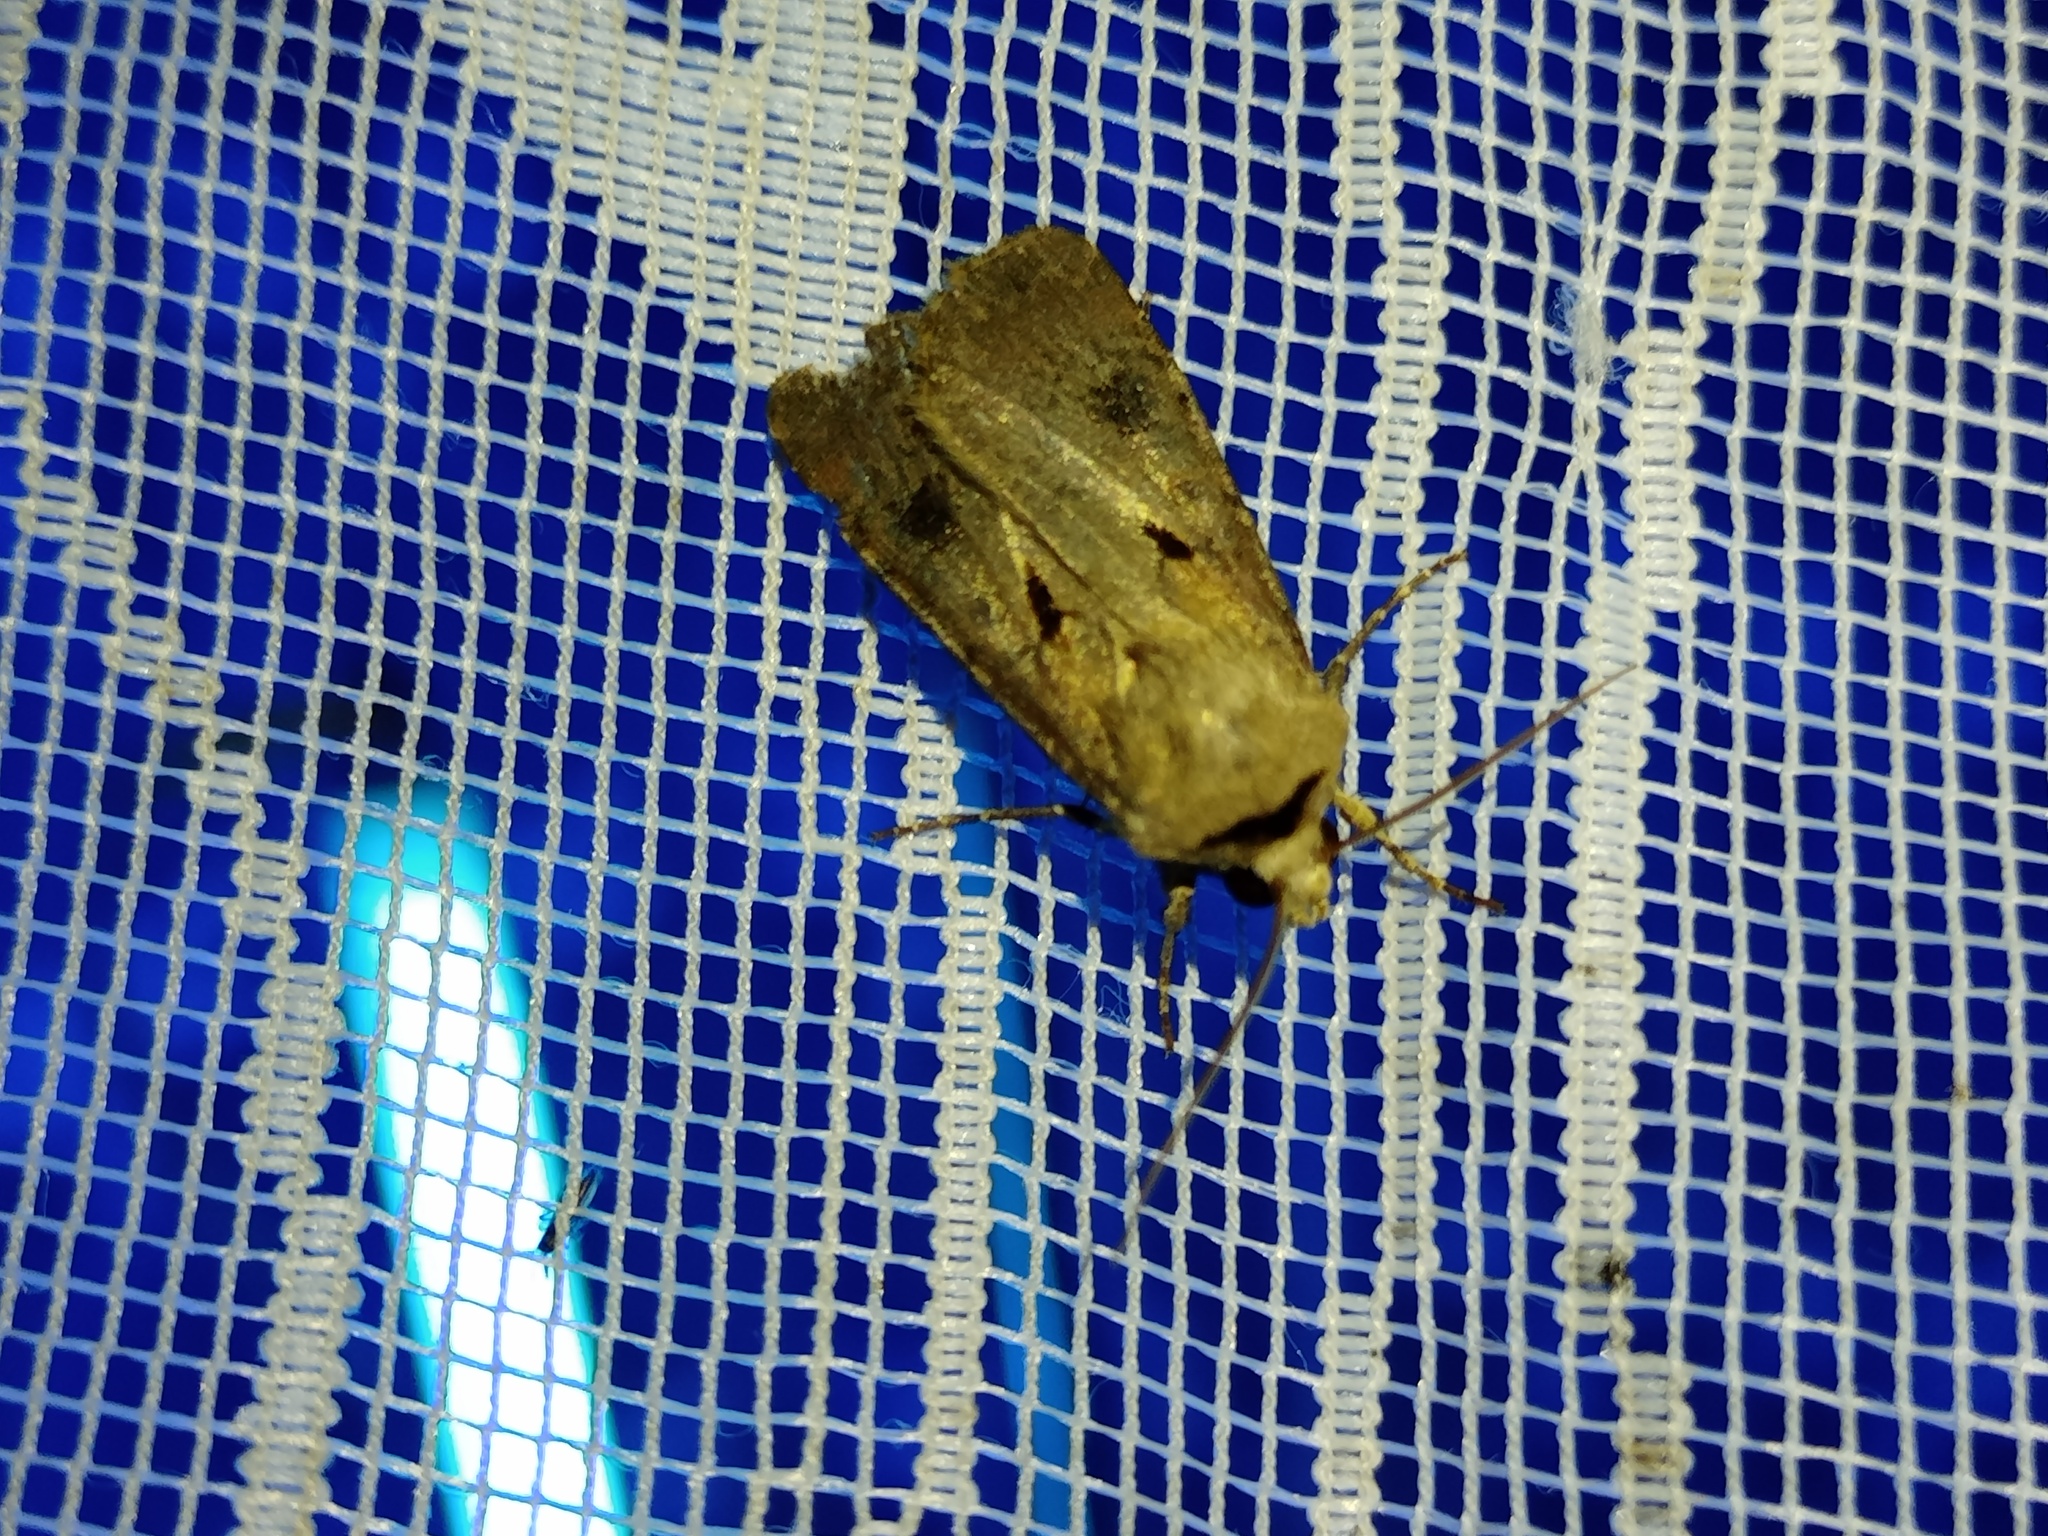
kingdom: Animalia
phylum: Arthropoda
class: Insecta
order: Lepidoptera
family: Noctuidae
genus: Agrotis
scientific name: Agrotis exclamationis
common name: Heart and dart
